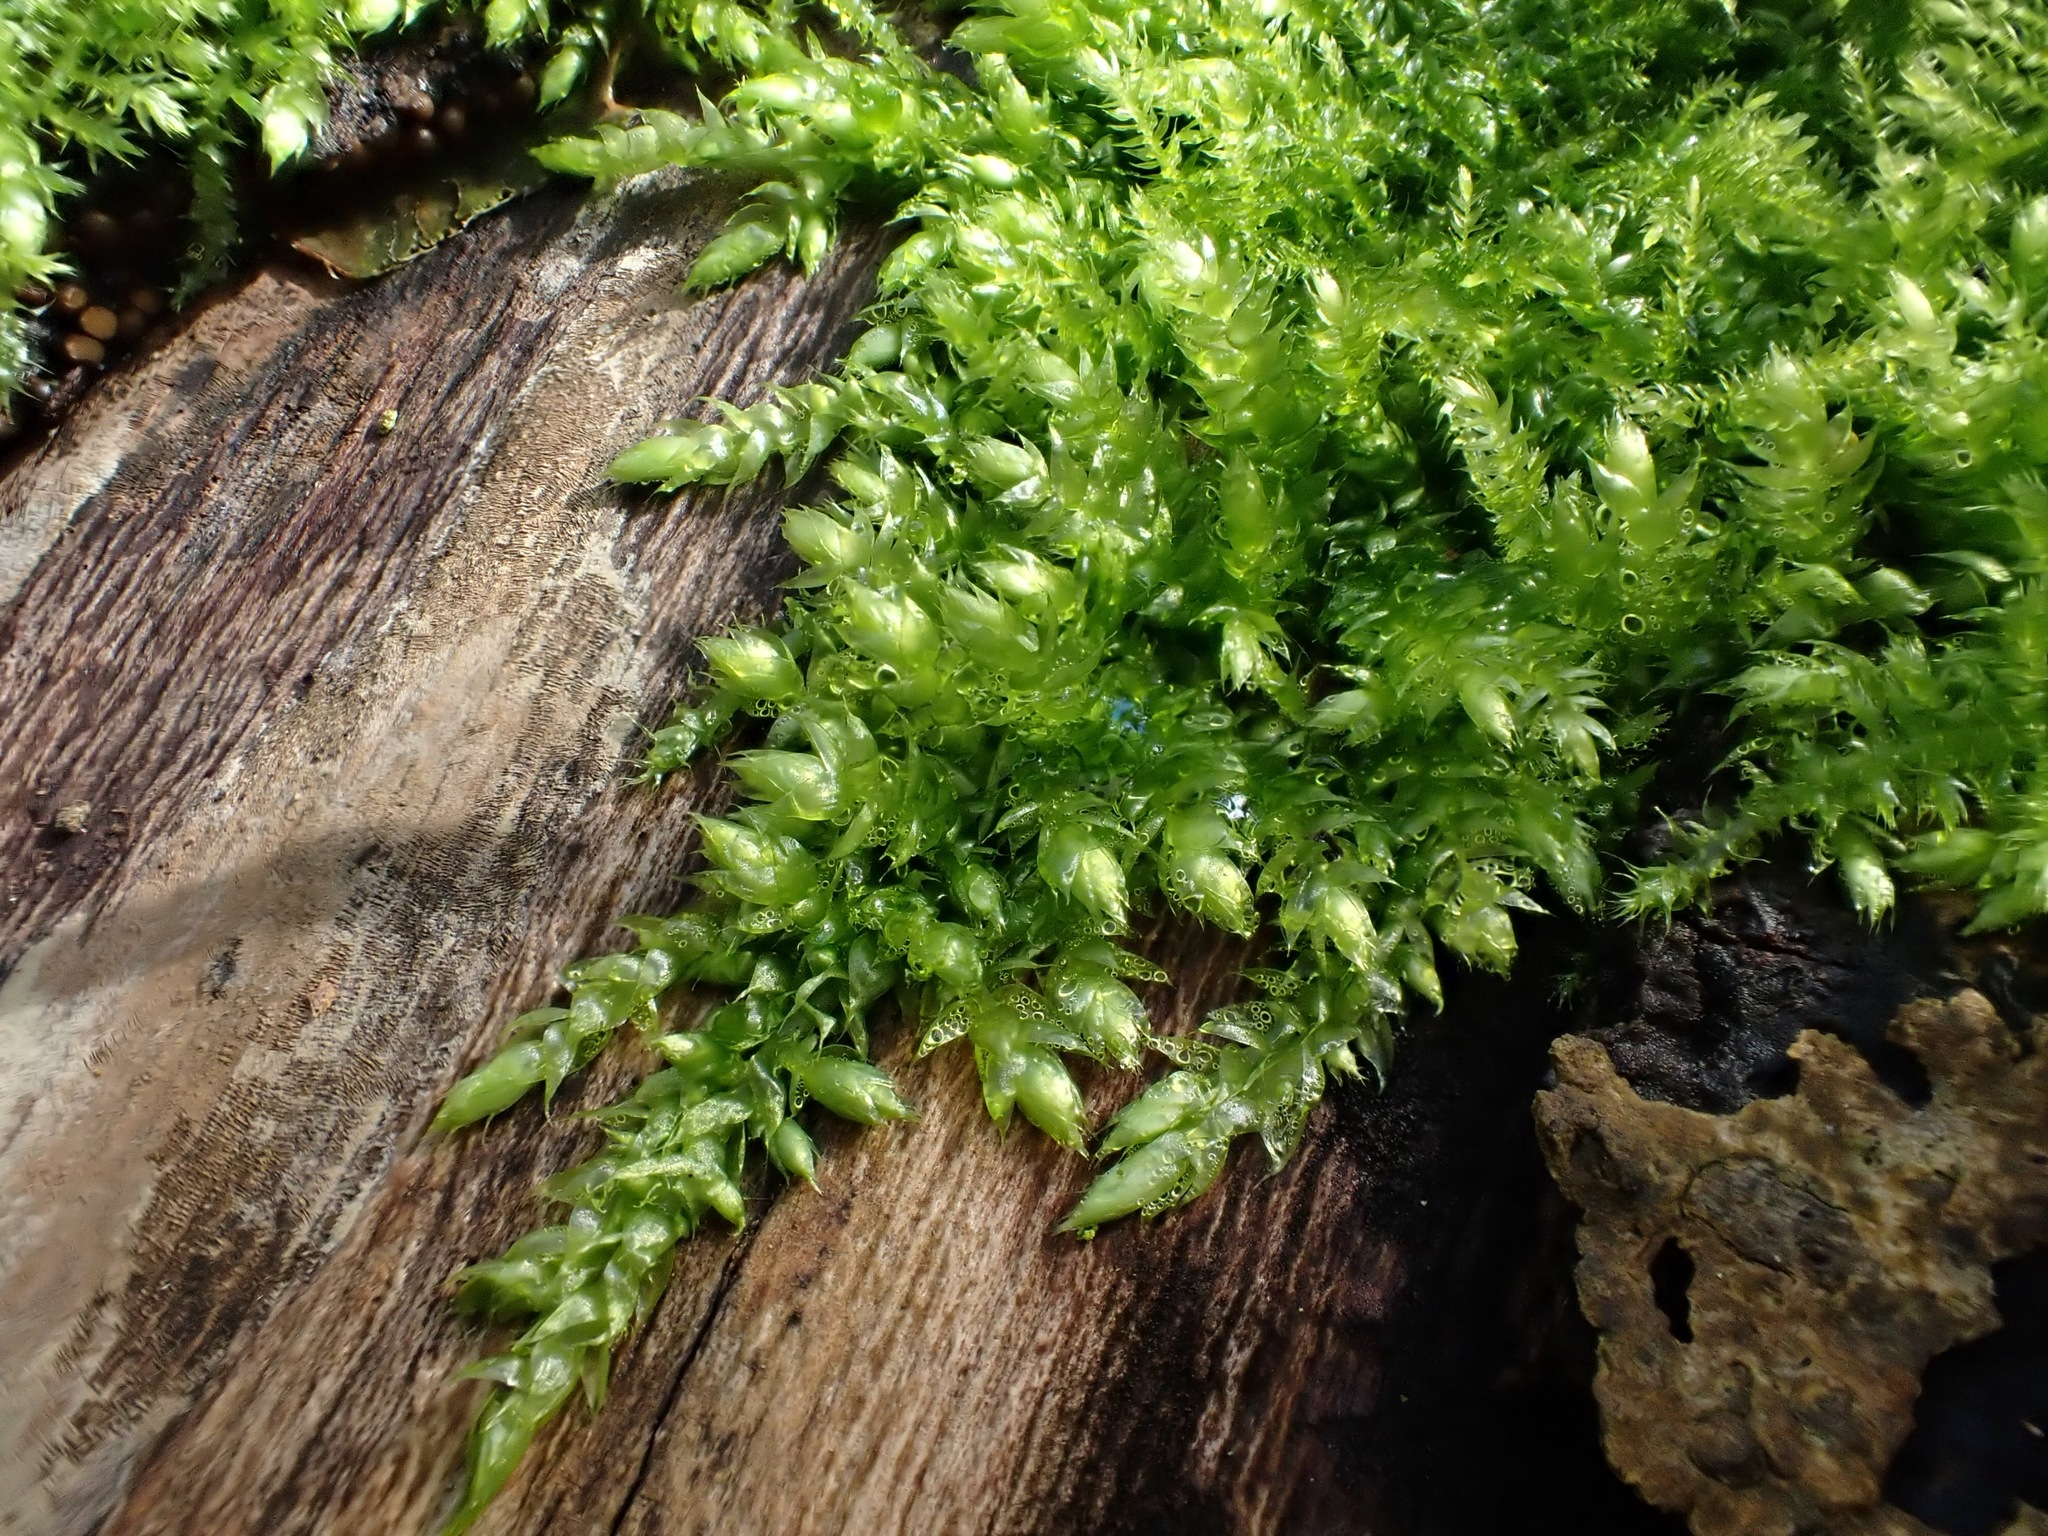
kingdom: Plantae
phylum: Bryophyta
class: Bryopsida
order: Hypnales
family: Brachytheciaceae
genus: Brachythecium
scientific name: Brachythecium rutabulum
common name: Rough-stalked feather-moss
